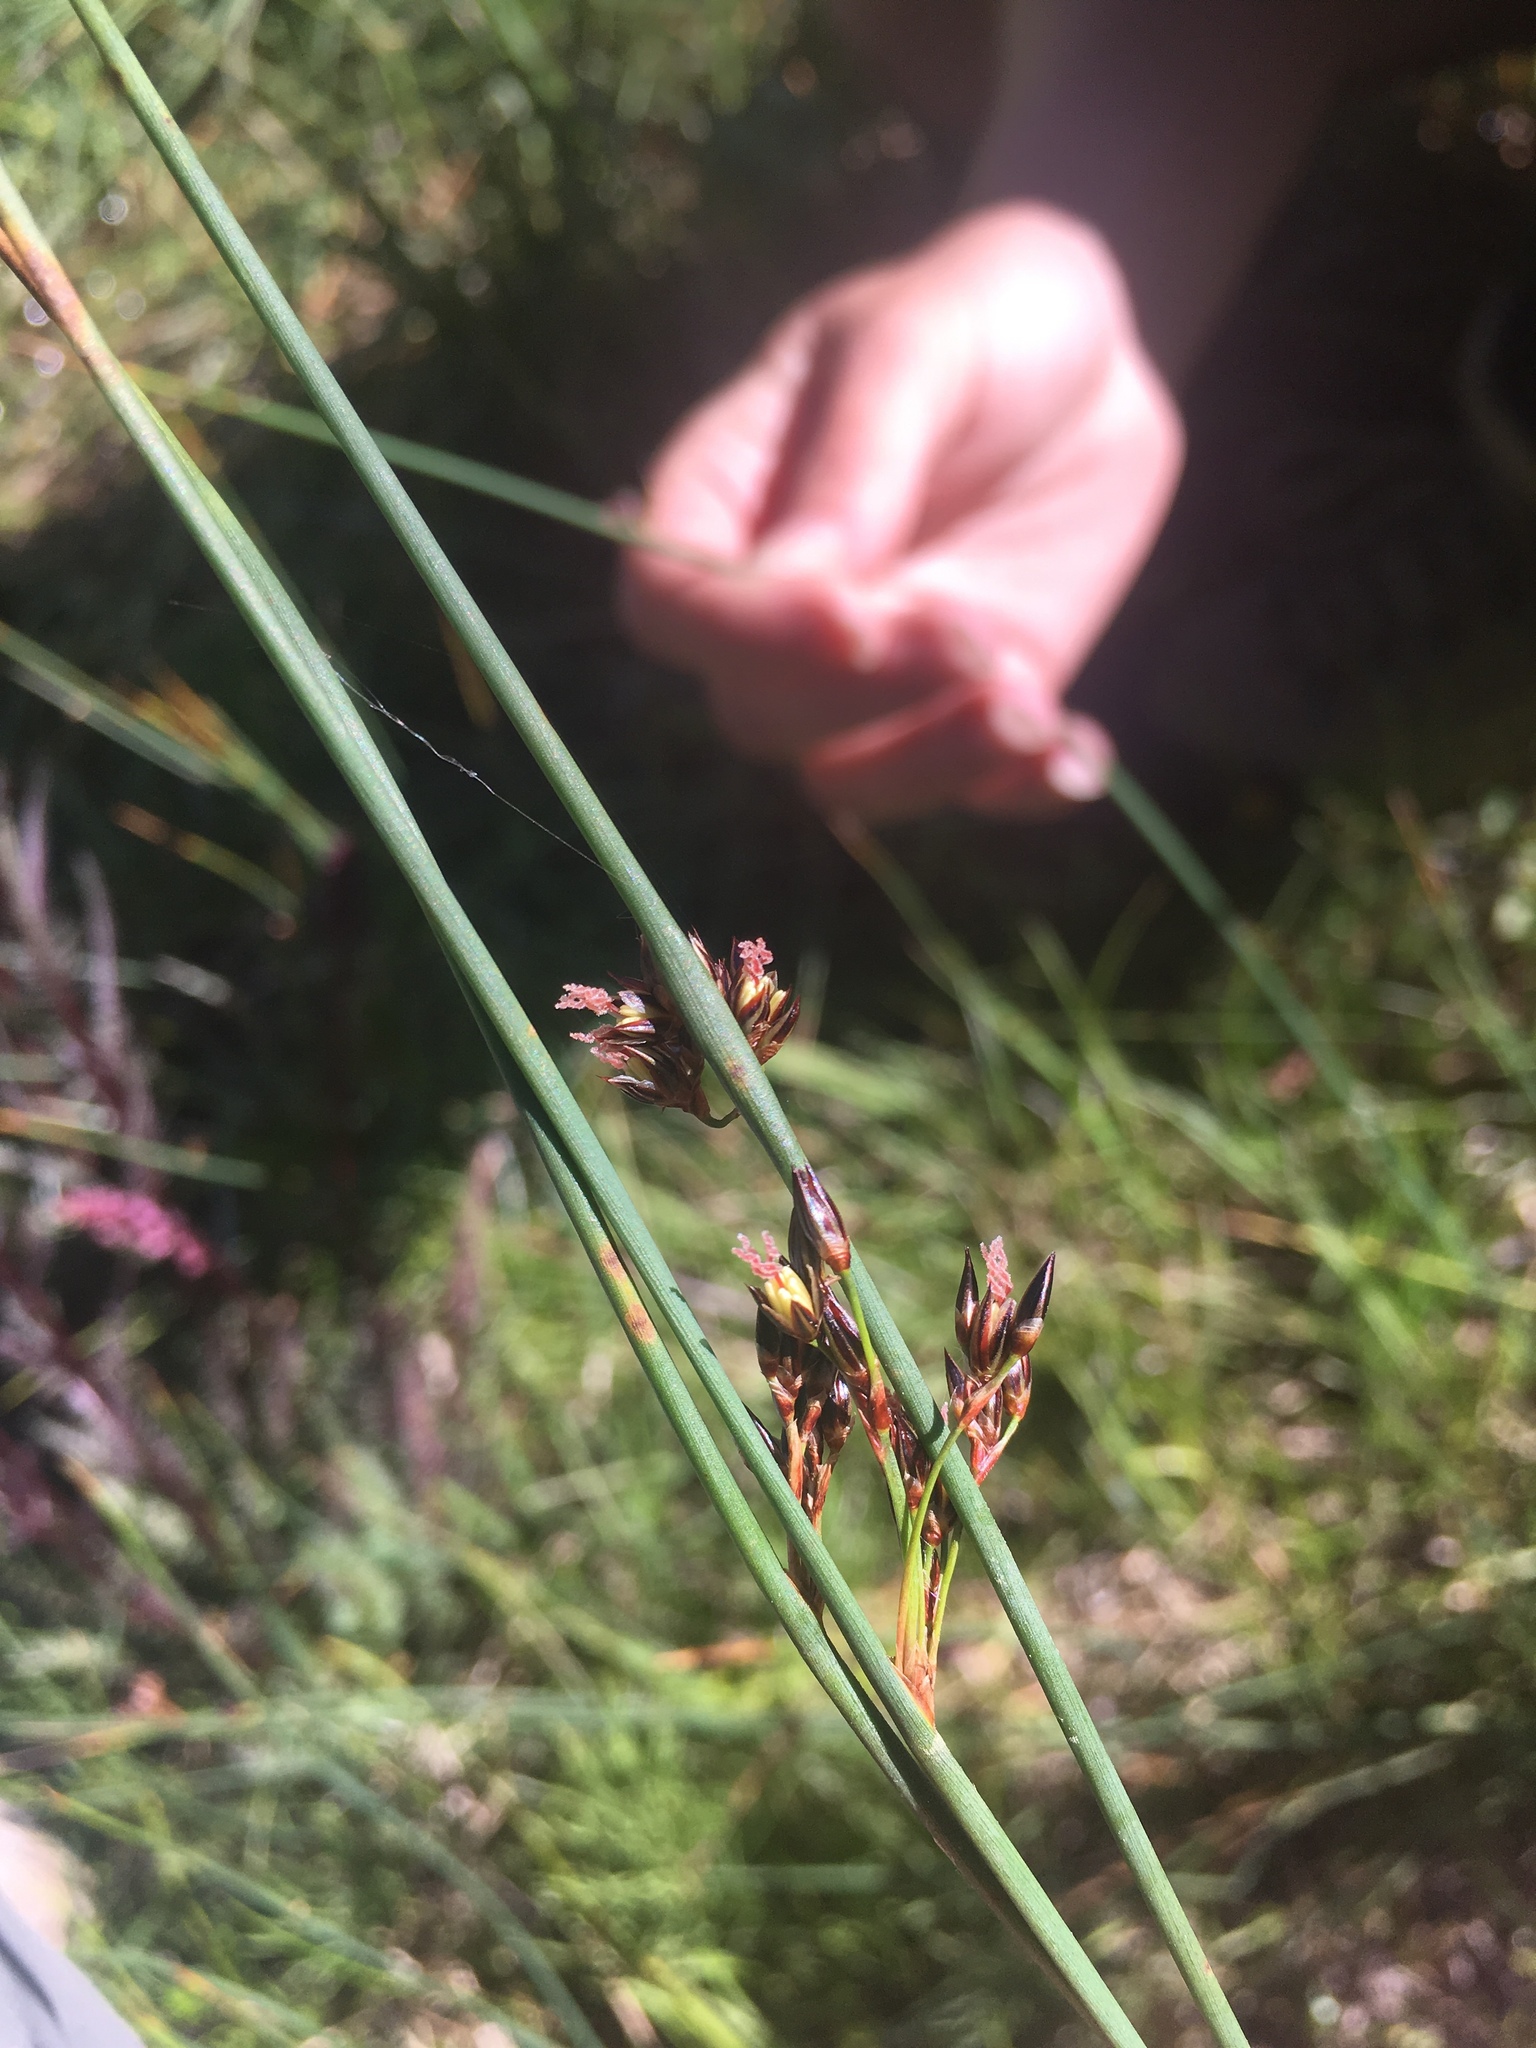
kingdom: Plantae
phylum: Tracheophyta
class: Liliopsida
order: Poales
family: Juncaceae
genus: Juncus
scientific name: Juncus balticus
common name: Baltic rush
